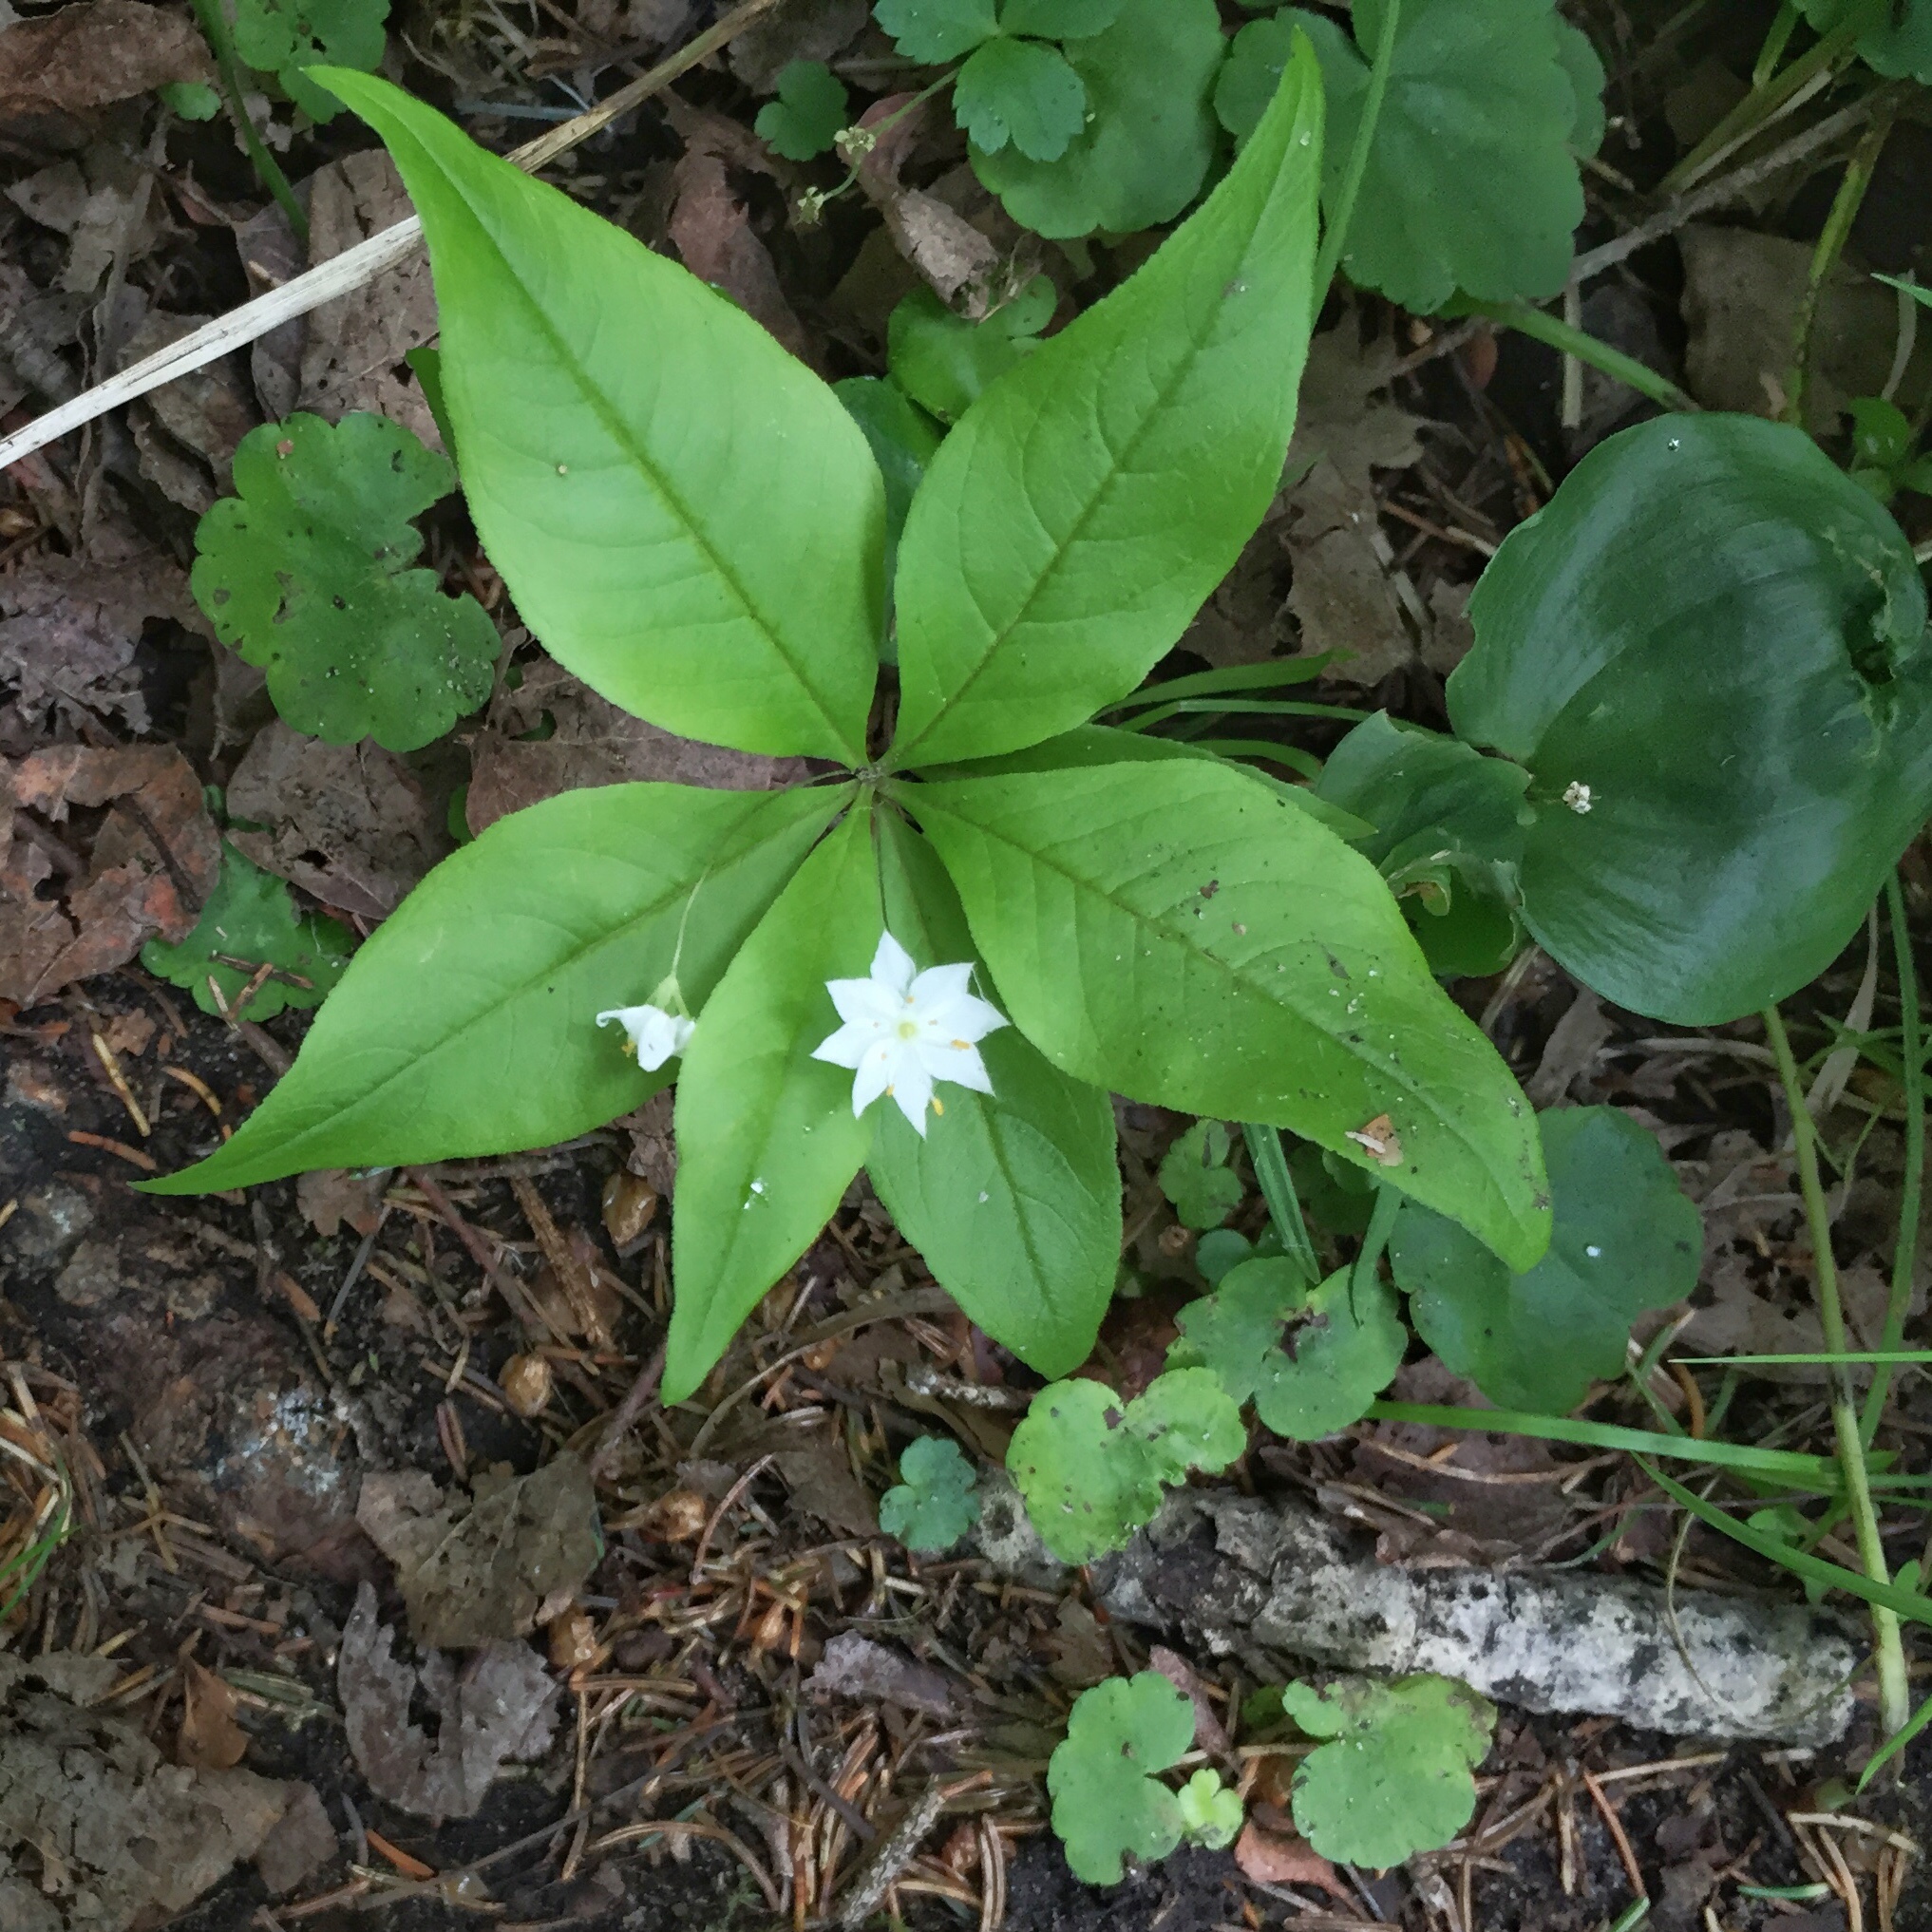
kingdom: Plantae
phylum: Tracheophyta
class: Magnoliopsida
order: Ericales
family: Primulaceae
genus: Lysimachia
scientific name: Lysimachia borealis
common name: American starflower
